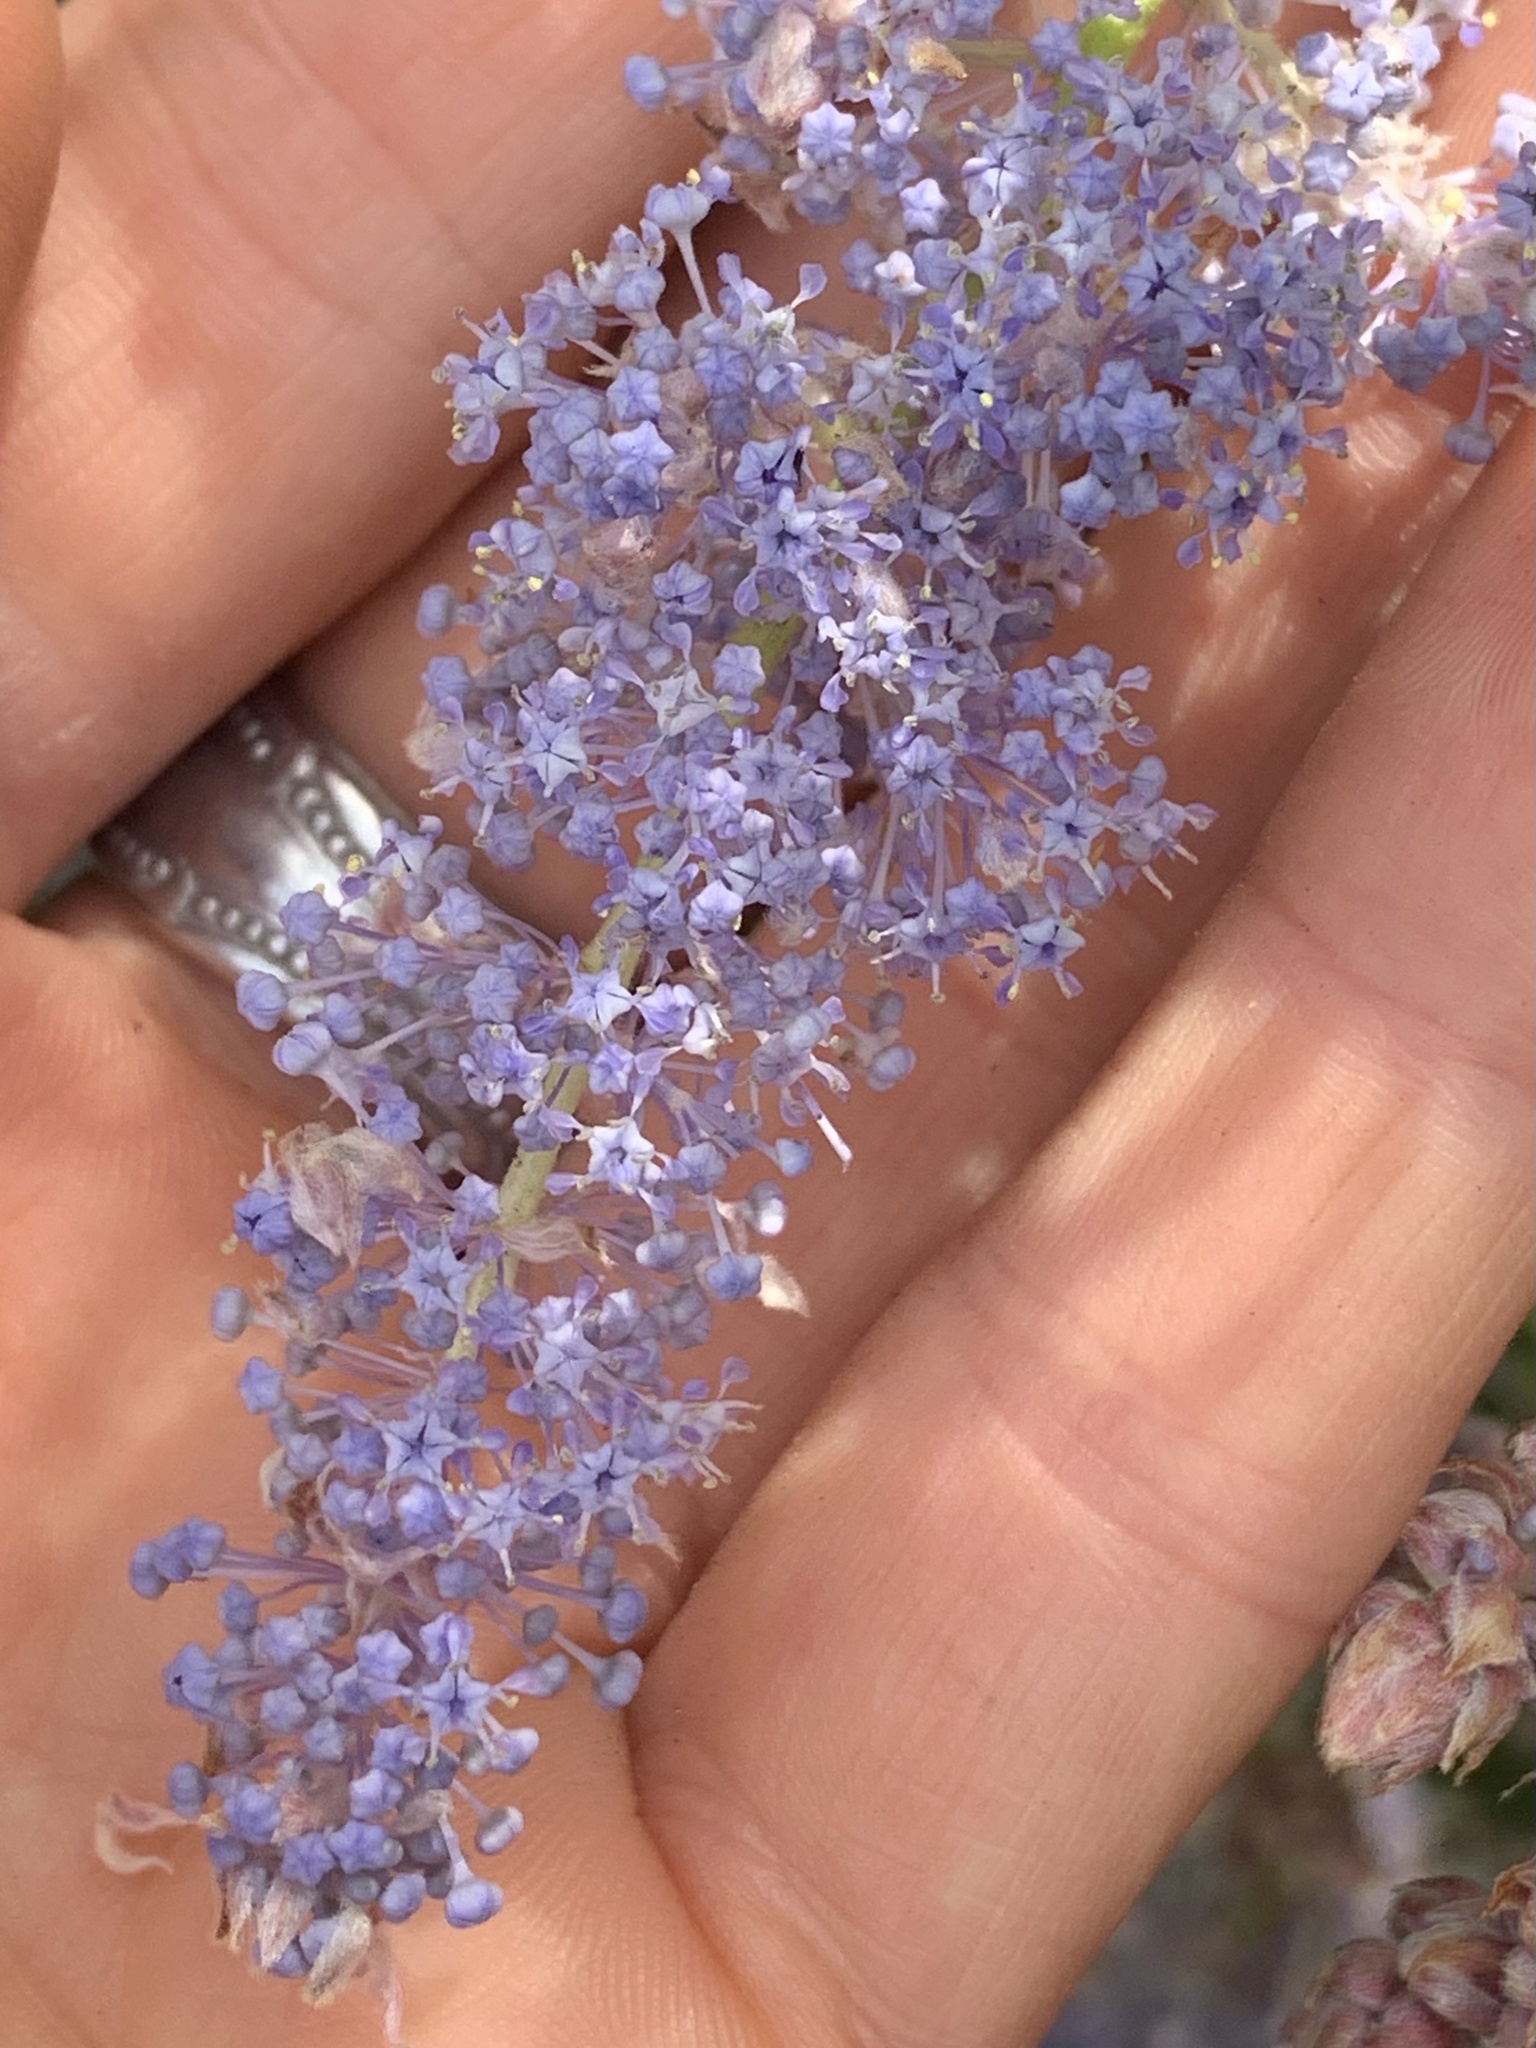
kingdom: Plantae
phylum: Tracheophyta
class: Magnoliopsida
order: Rosales
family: Rhamnaceae
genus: Ceanothus
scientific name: Ceanothus integerrimus
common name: Deerbrush ceanothus
